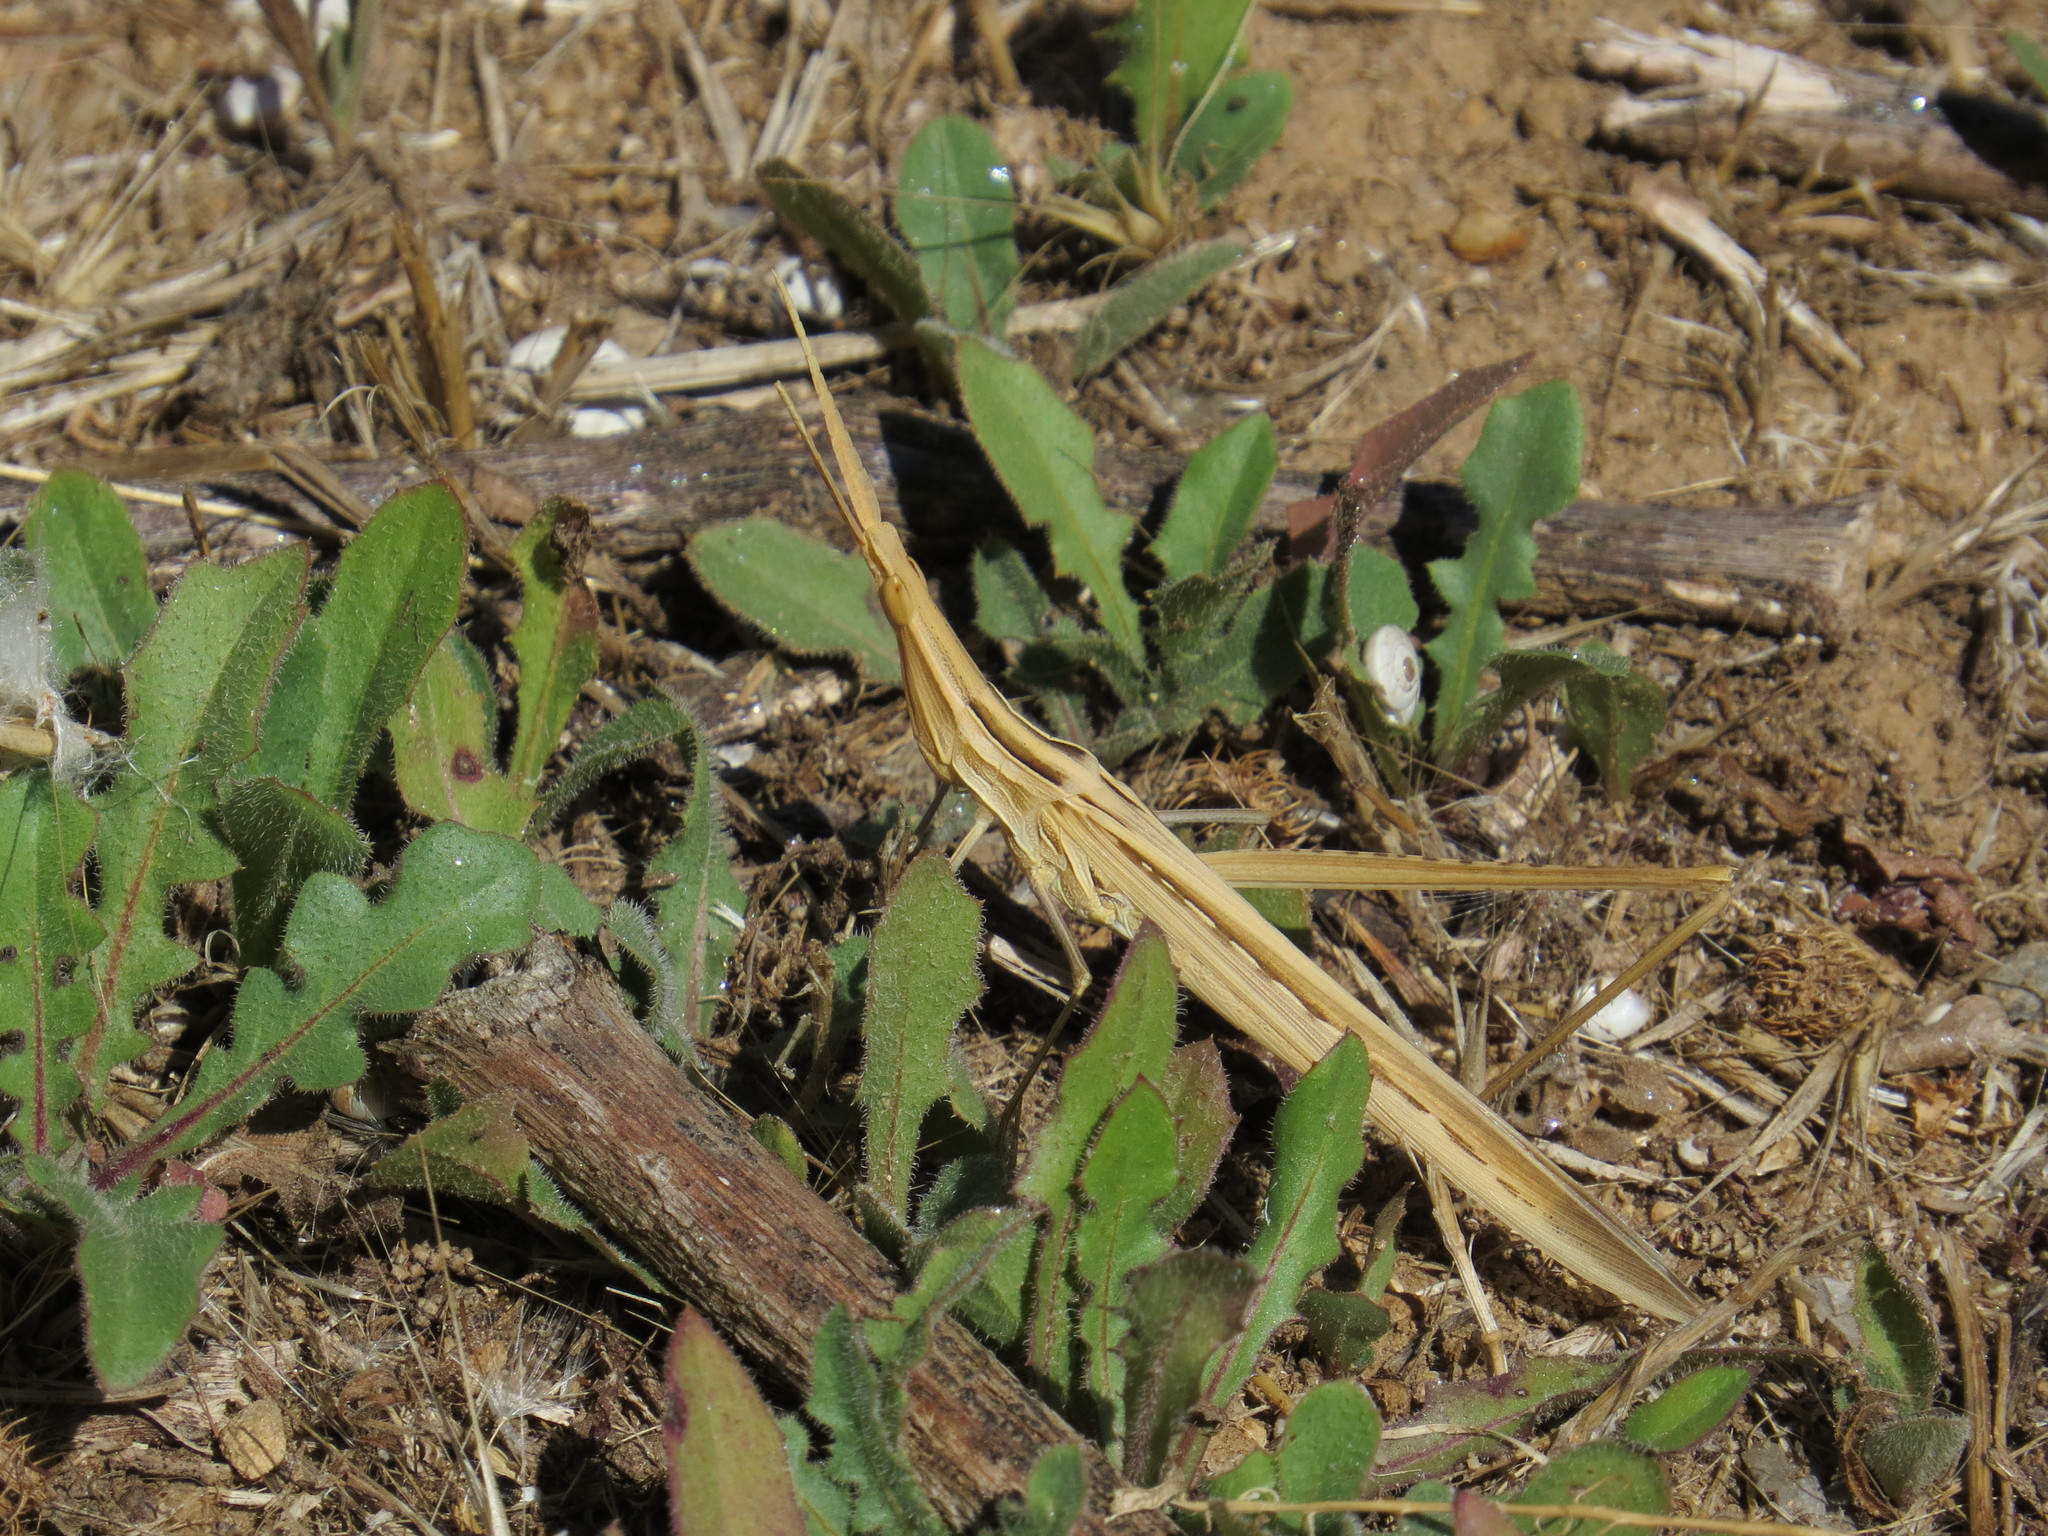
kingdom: Animalia
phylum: Arthropoda
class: Insecta
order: Orthoptera
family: Acrididae
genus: Acrida
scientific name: Acrida ungarica
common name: Common cone-headed grasshopper
